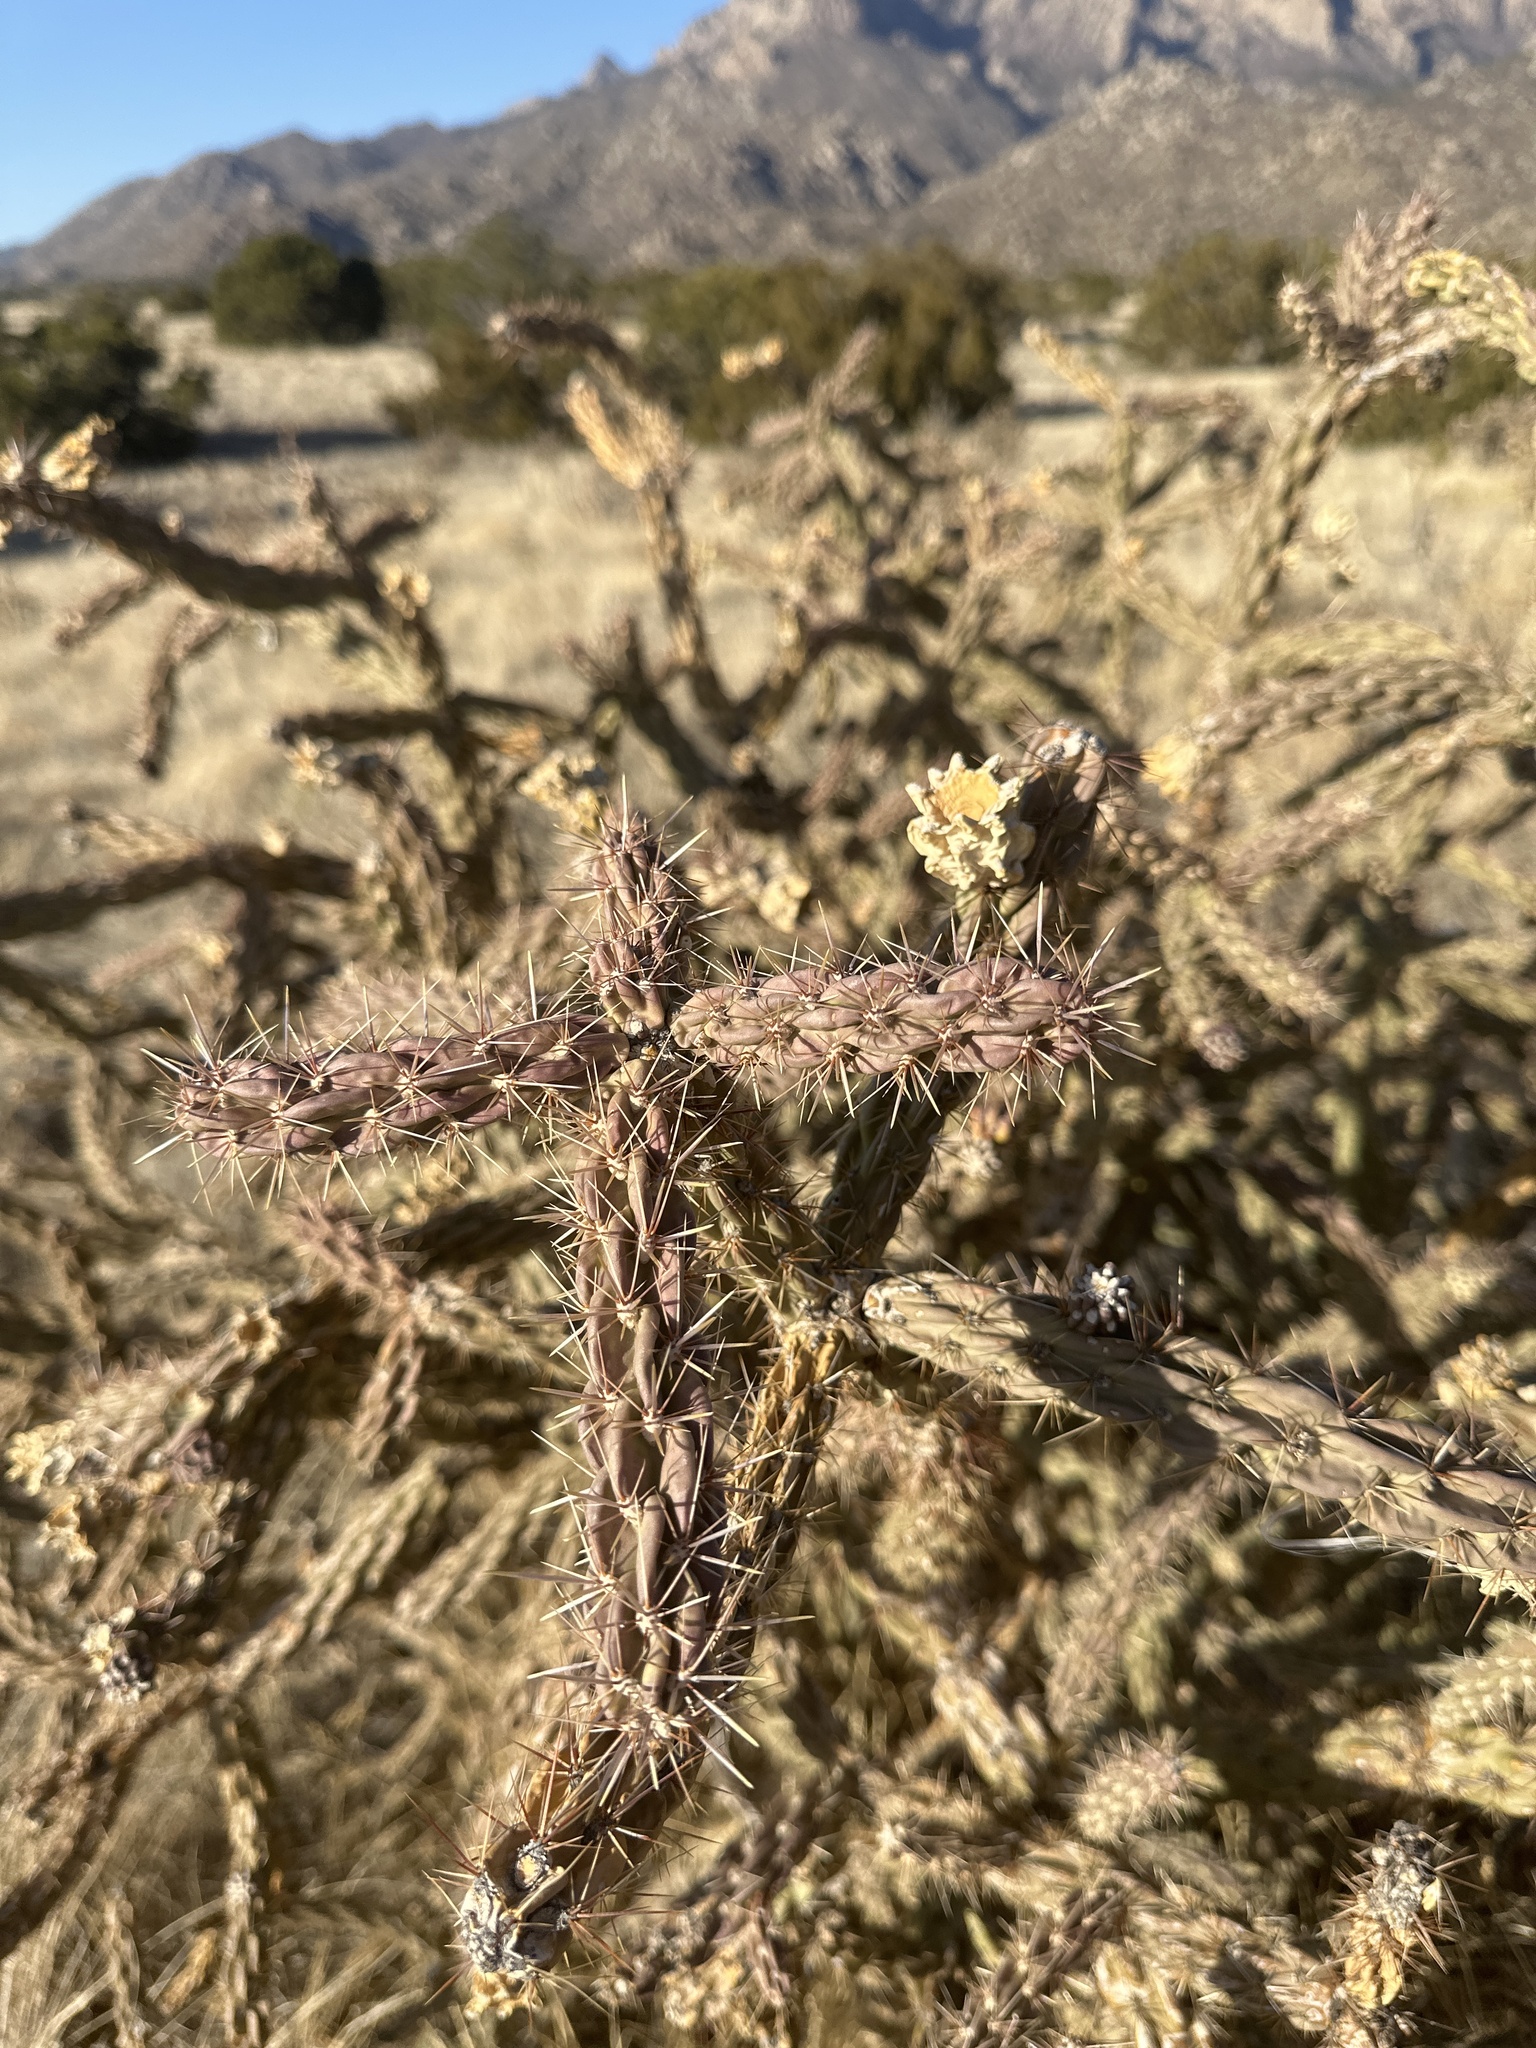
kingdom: Plantae
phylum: Tracheophyta
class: Magnoliopsida
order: Caryophyllales
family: Cactaceae
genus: Cylindropuntia
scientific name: Cylindropuntia imbricata
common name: Candelabrum cactus
